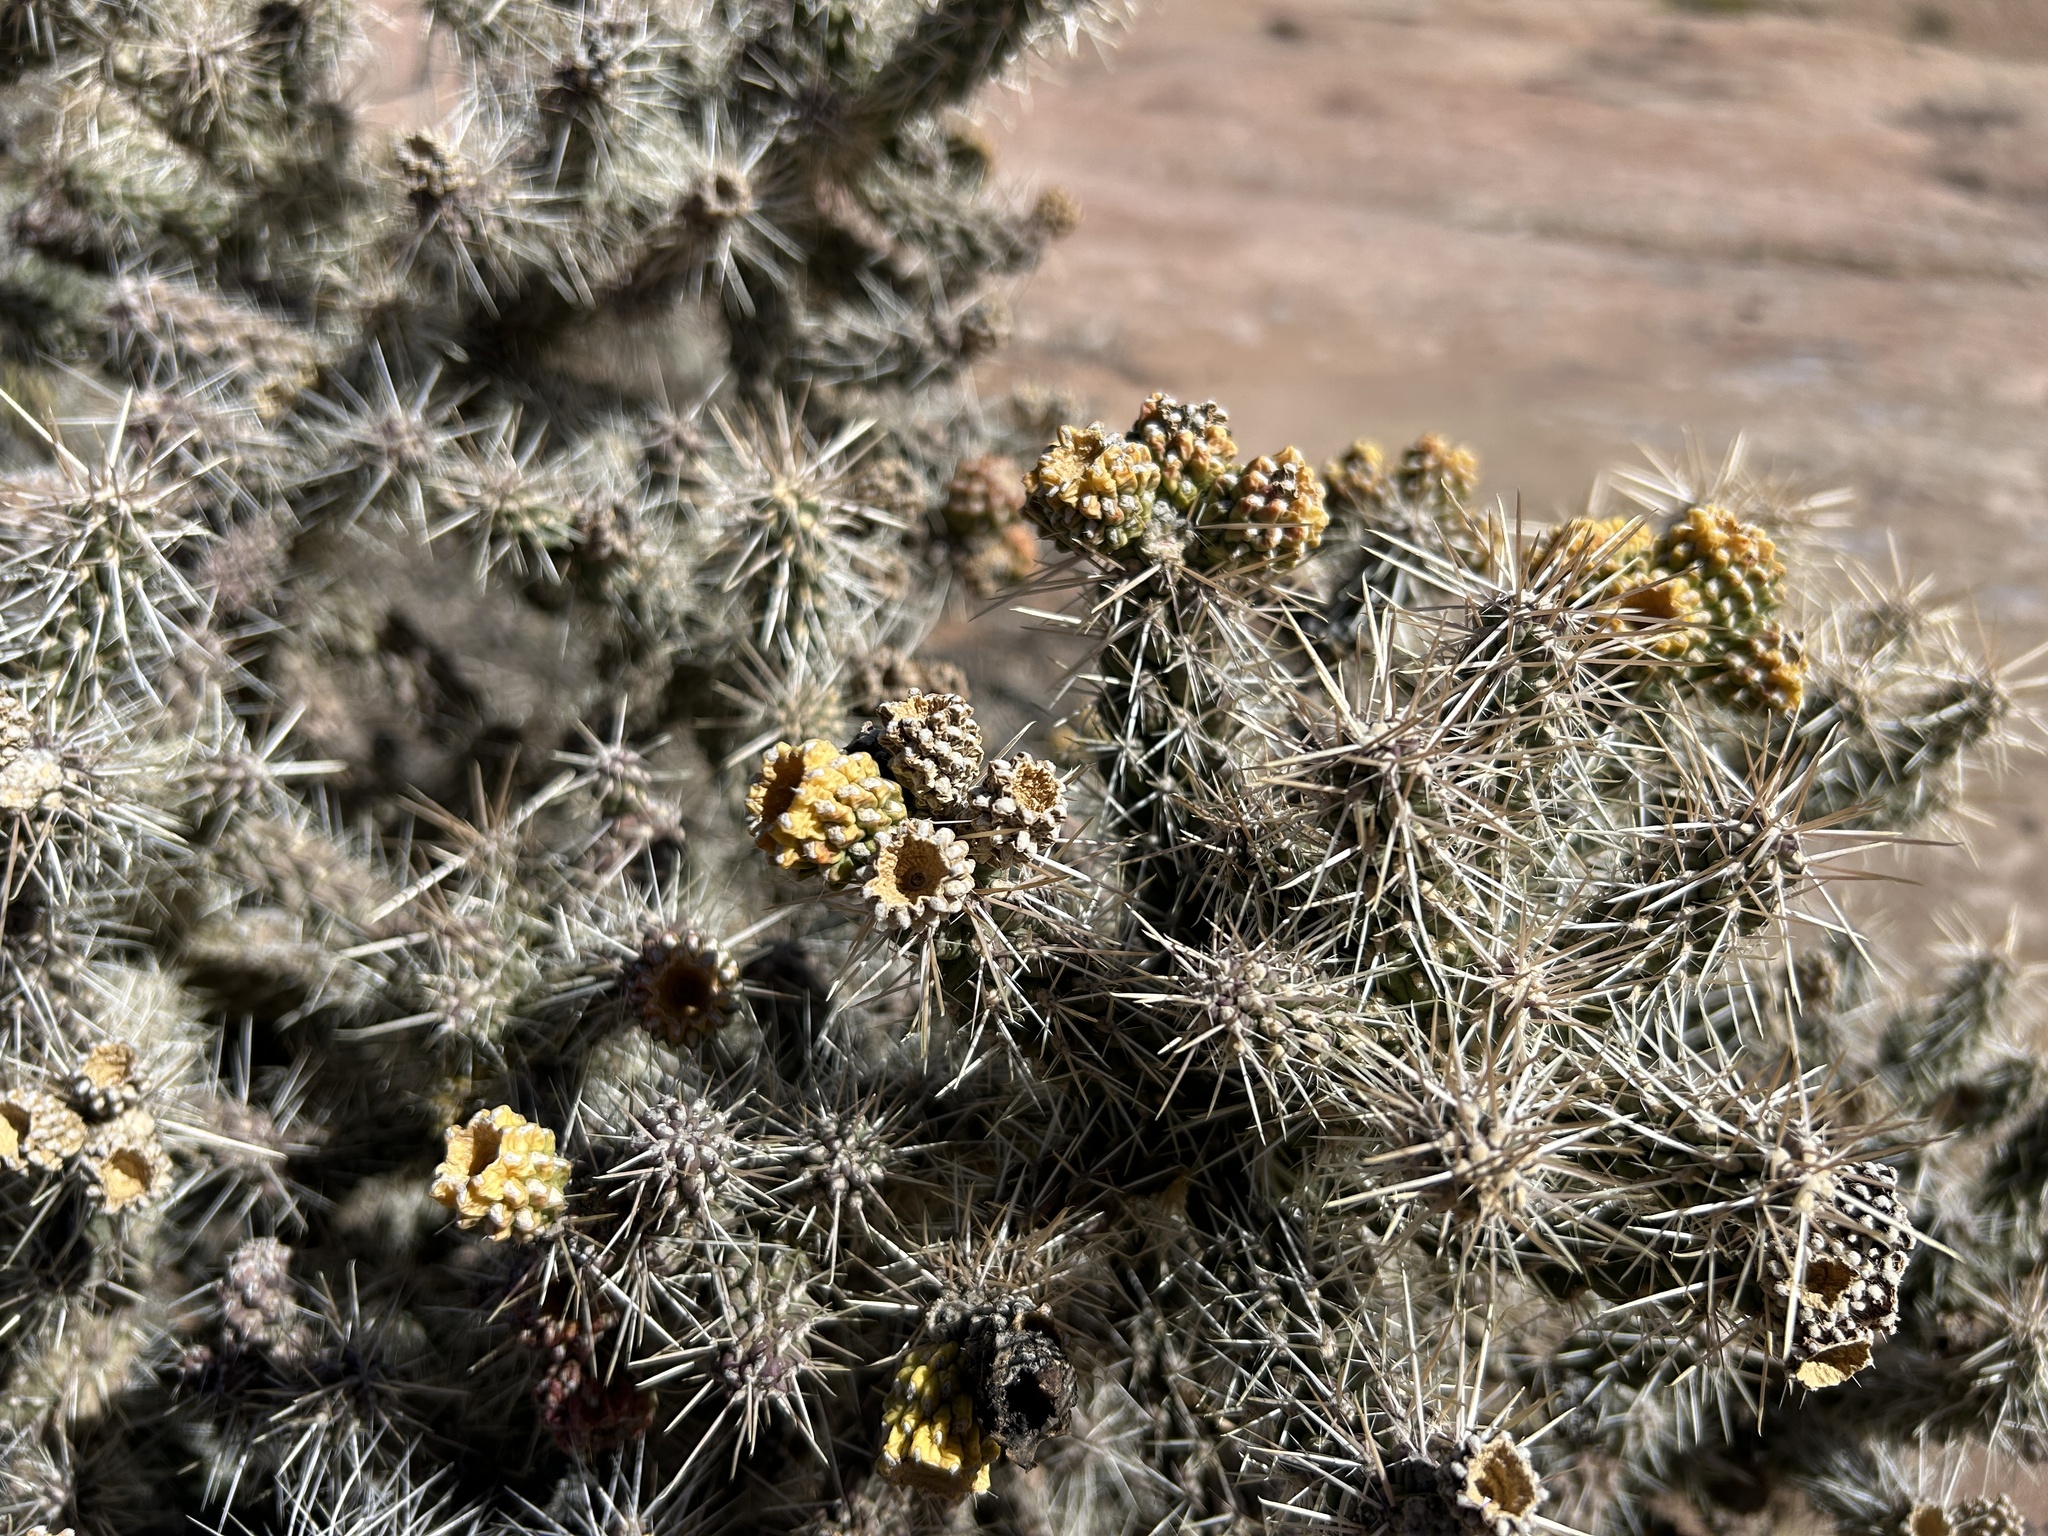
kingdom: Plantae
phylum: Tracheophyta
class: Magnoliopsida
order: Caryophyllales
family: Cactaceae
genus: Cylindropuntia
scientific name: Cylindropuntia whipplei
